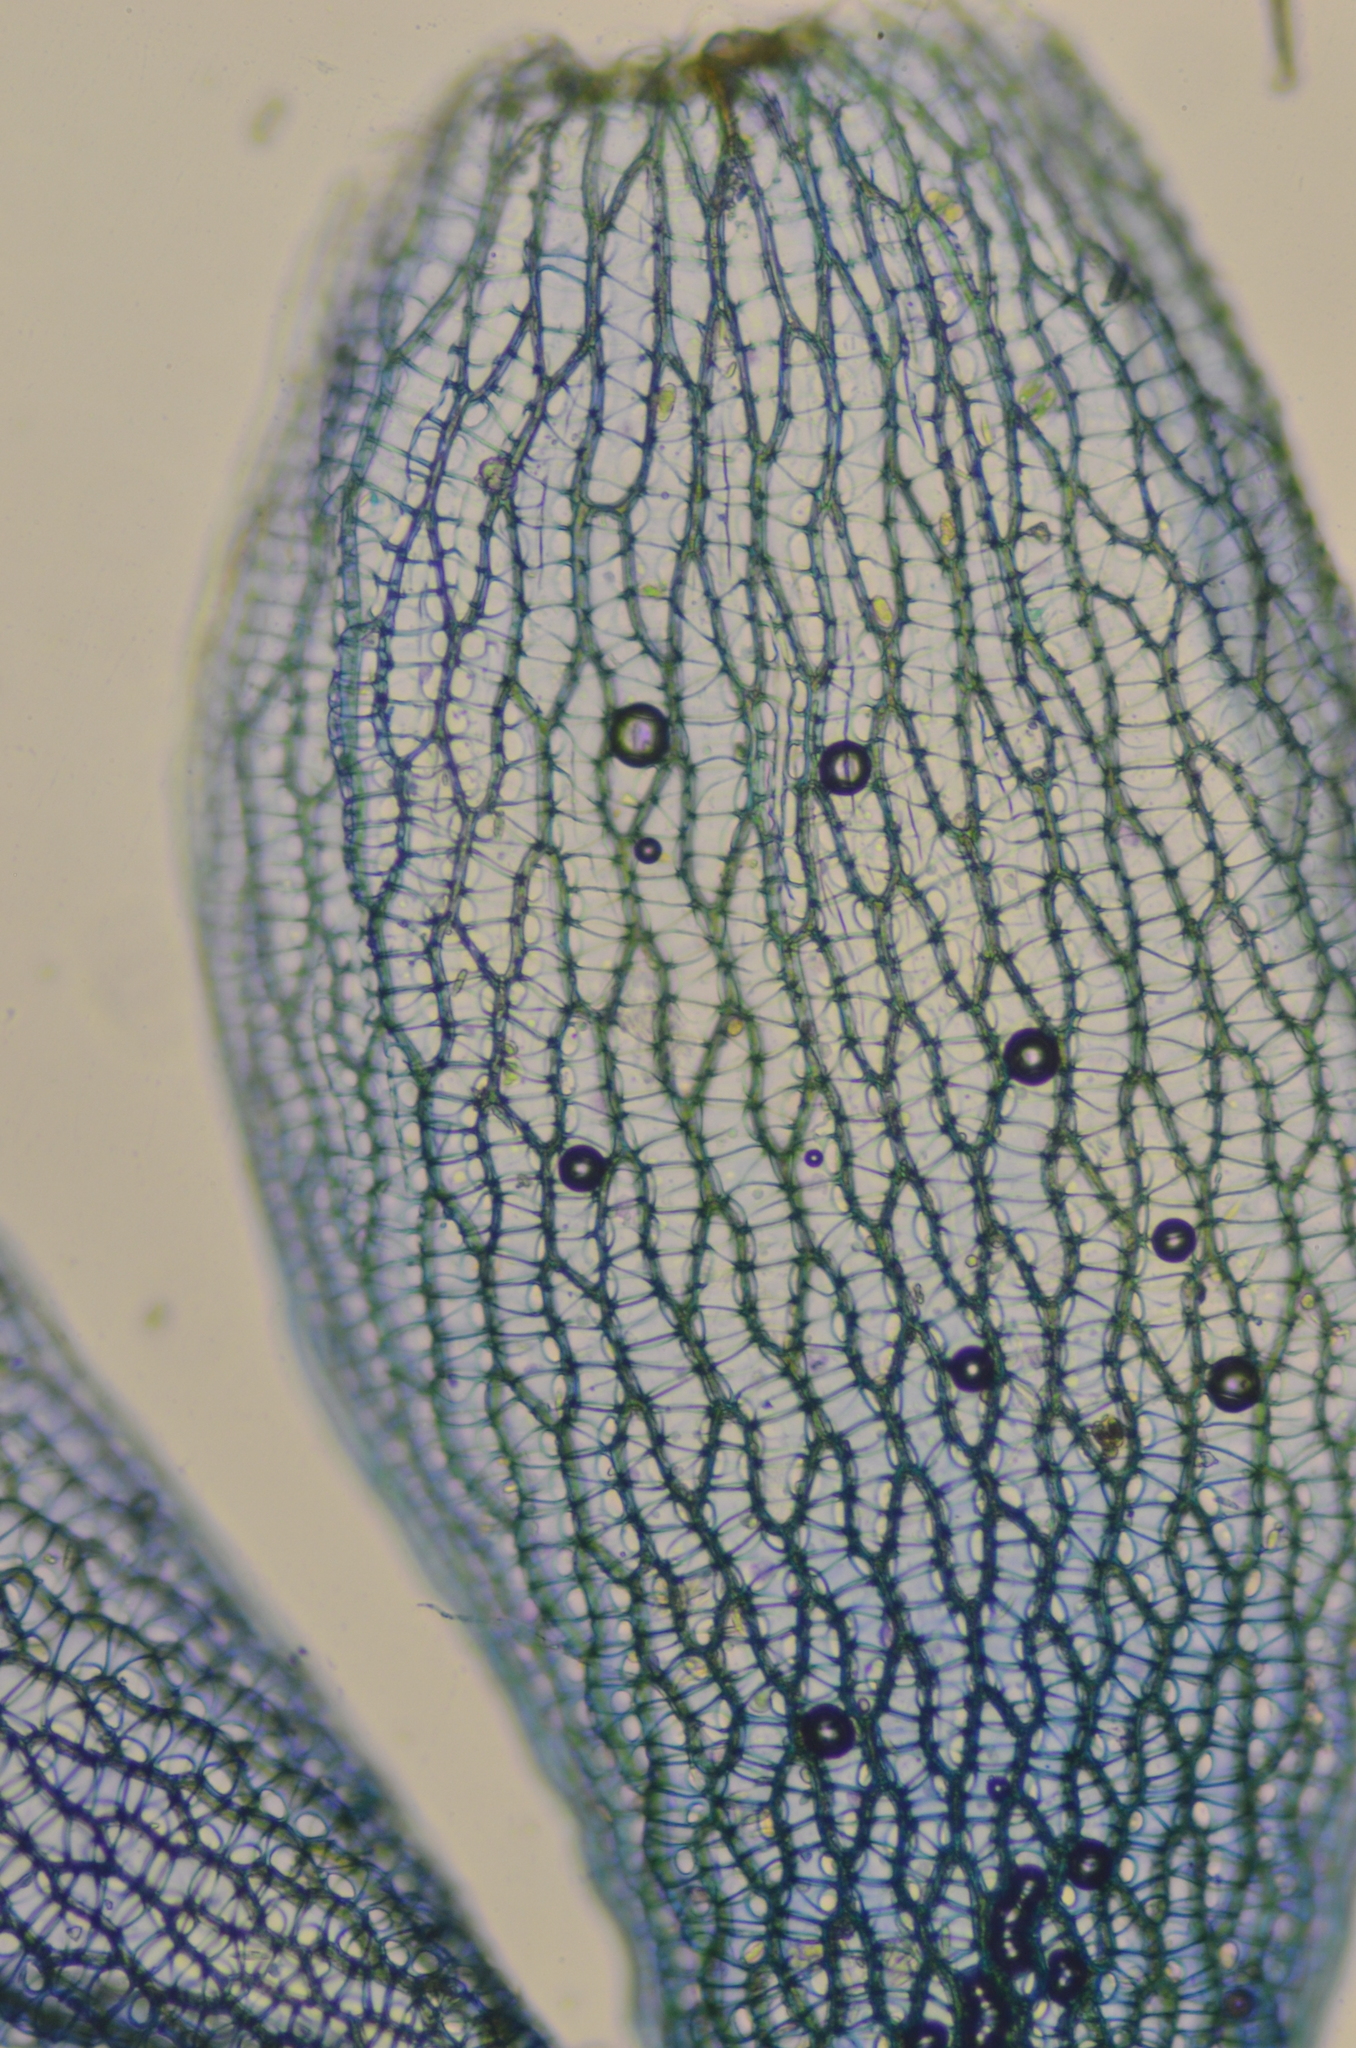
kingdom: Plantae
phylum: Bryophyta
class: Sphagnopsida
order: Sphagnales
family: Sphagnaceae
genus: Sphagnum
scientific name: Sphagnum rubiginosum
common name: Variegated peat moss
